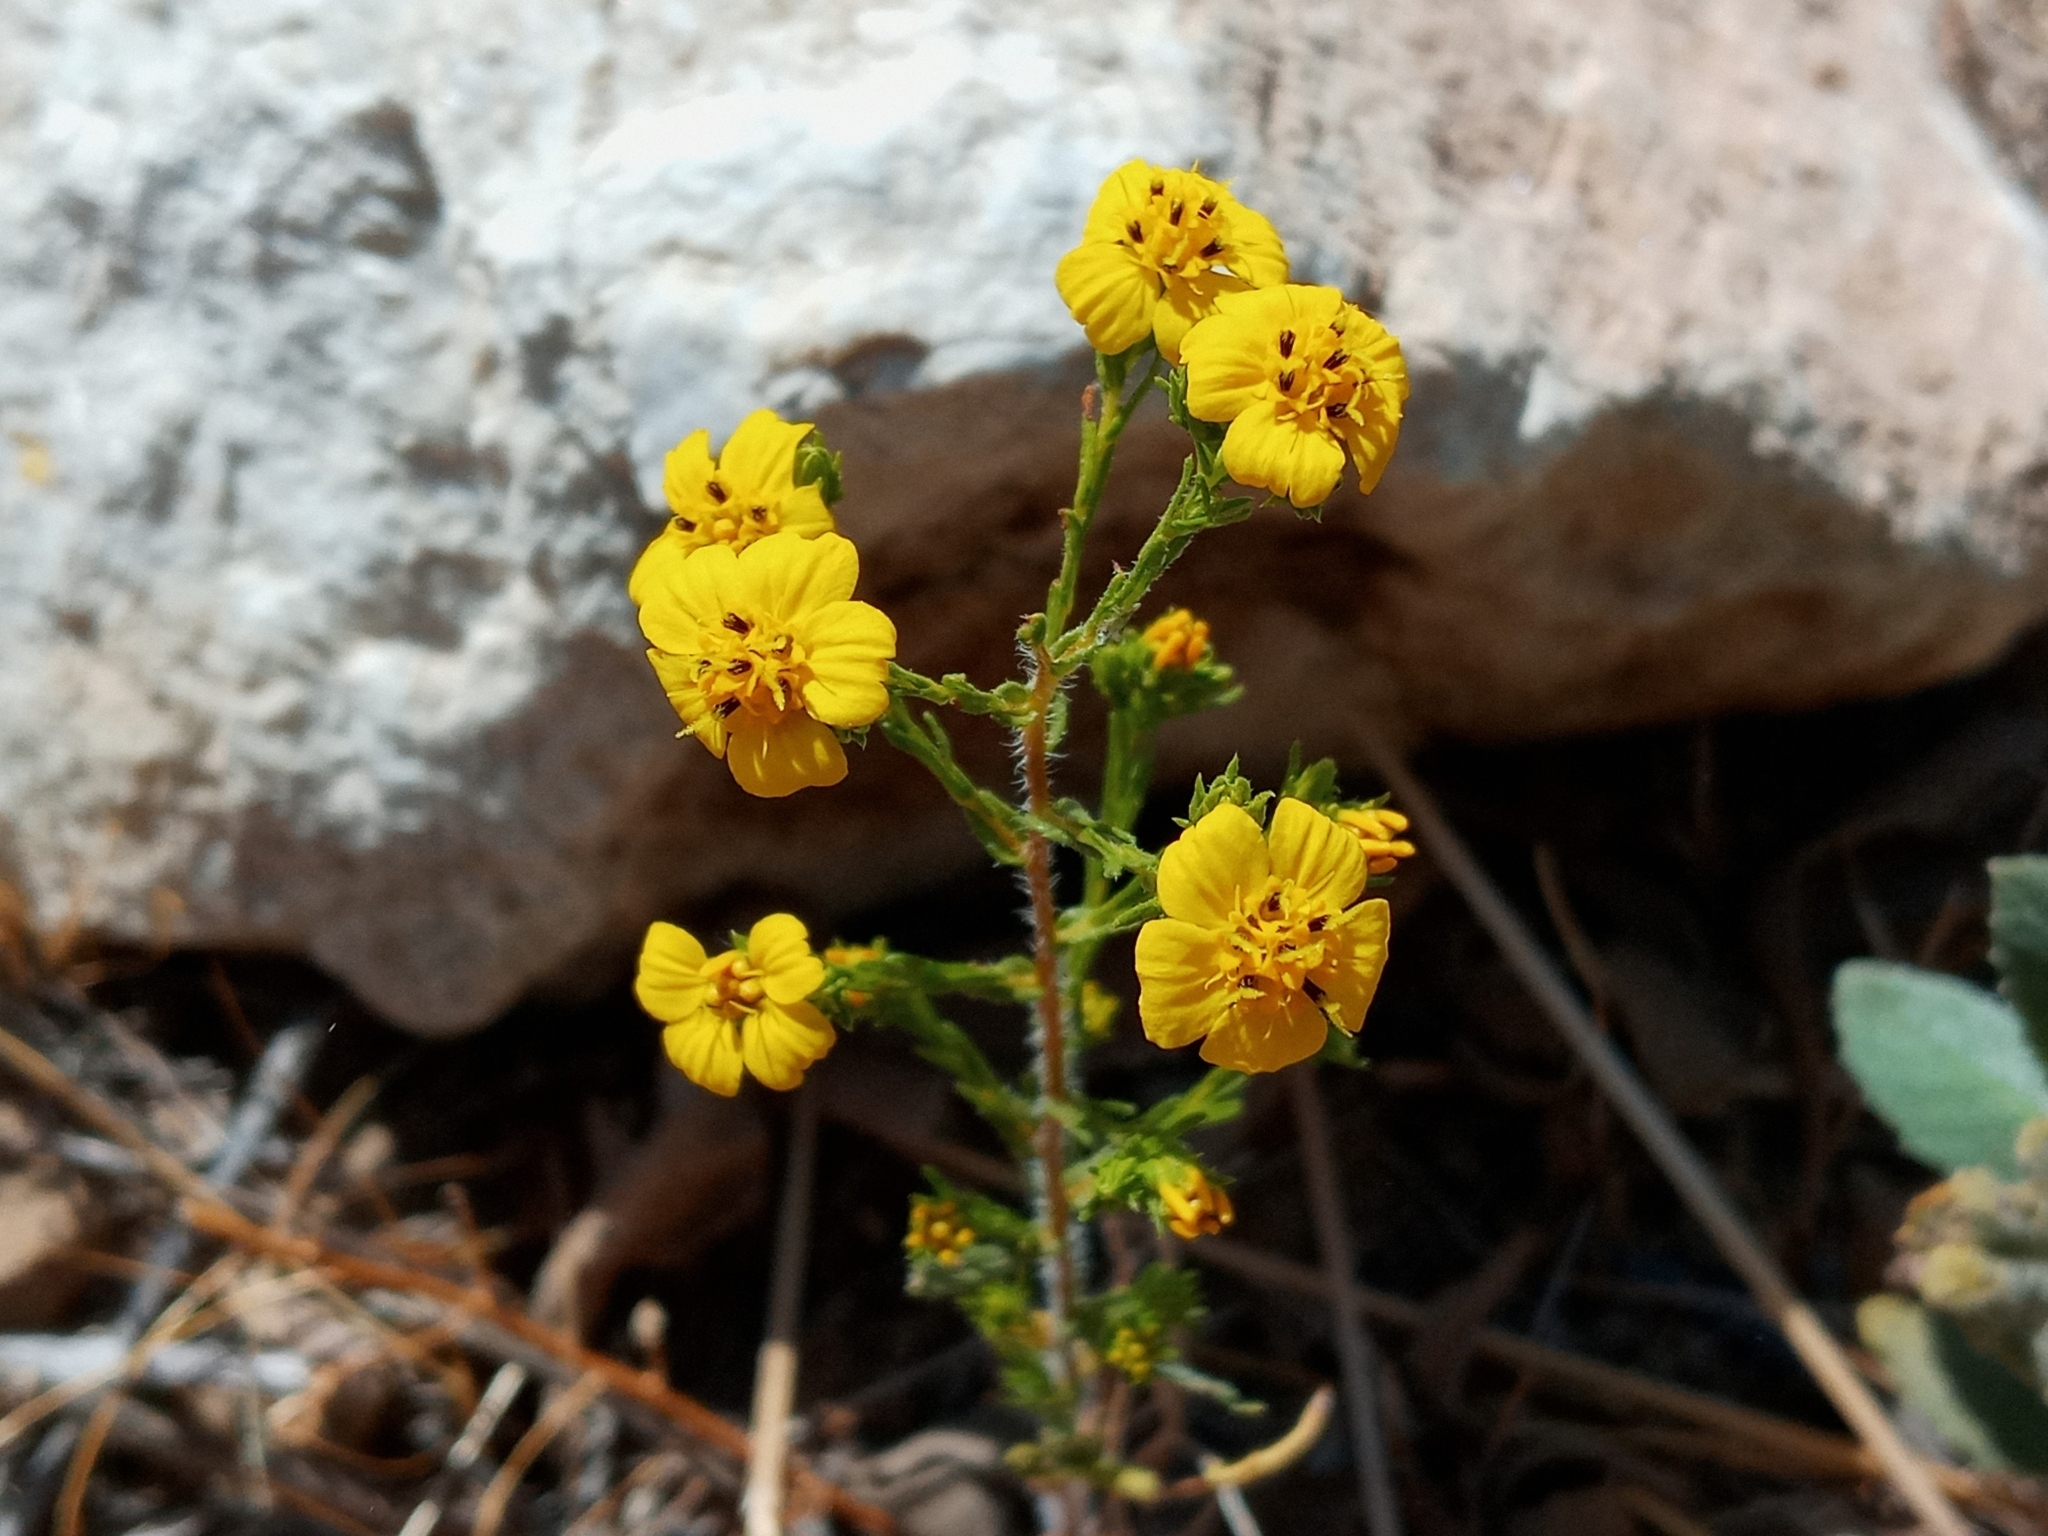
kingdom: Plantae
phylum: Tracheophyta
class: Magnoliopsida
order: Asterales
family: Asteraceae
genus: Deinandra
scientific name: Deinandra fasciculata
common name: Clustered tarweed
